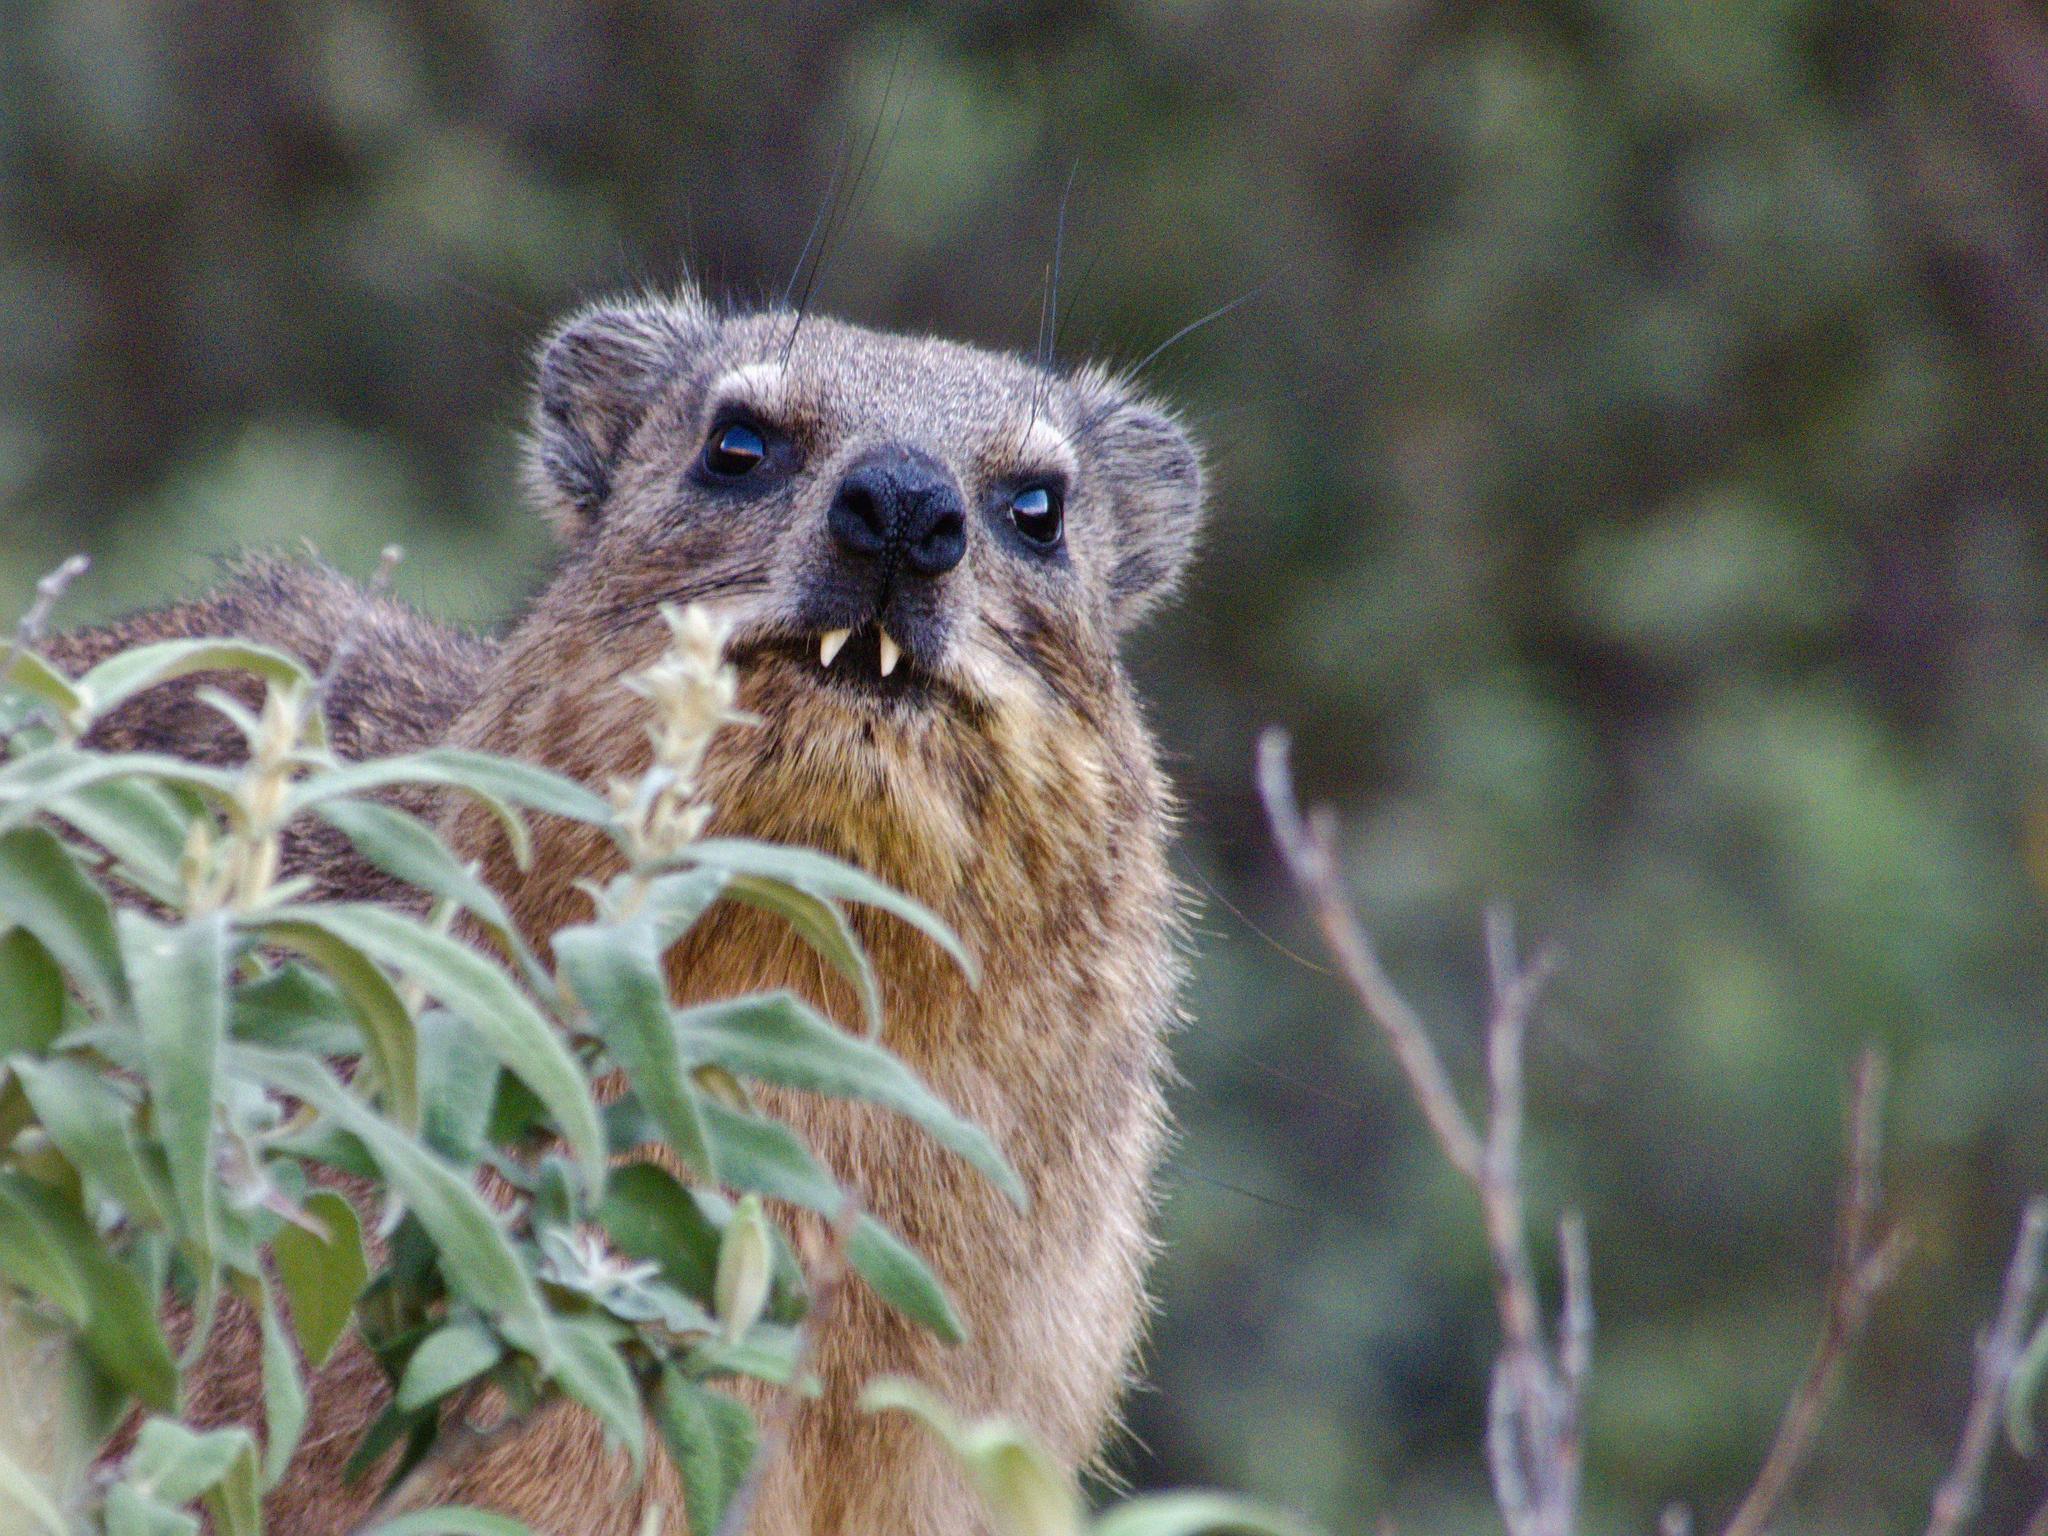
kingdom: Animalia
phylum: Chordata
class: Mammalia
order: Hyracoidea
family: Procaviidae
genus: Procavia
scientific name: Procavia capensis
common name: Rock hyrax
